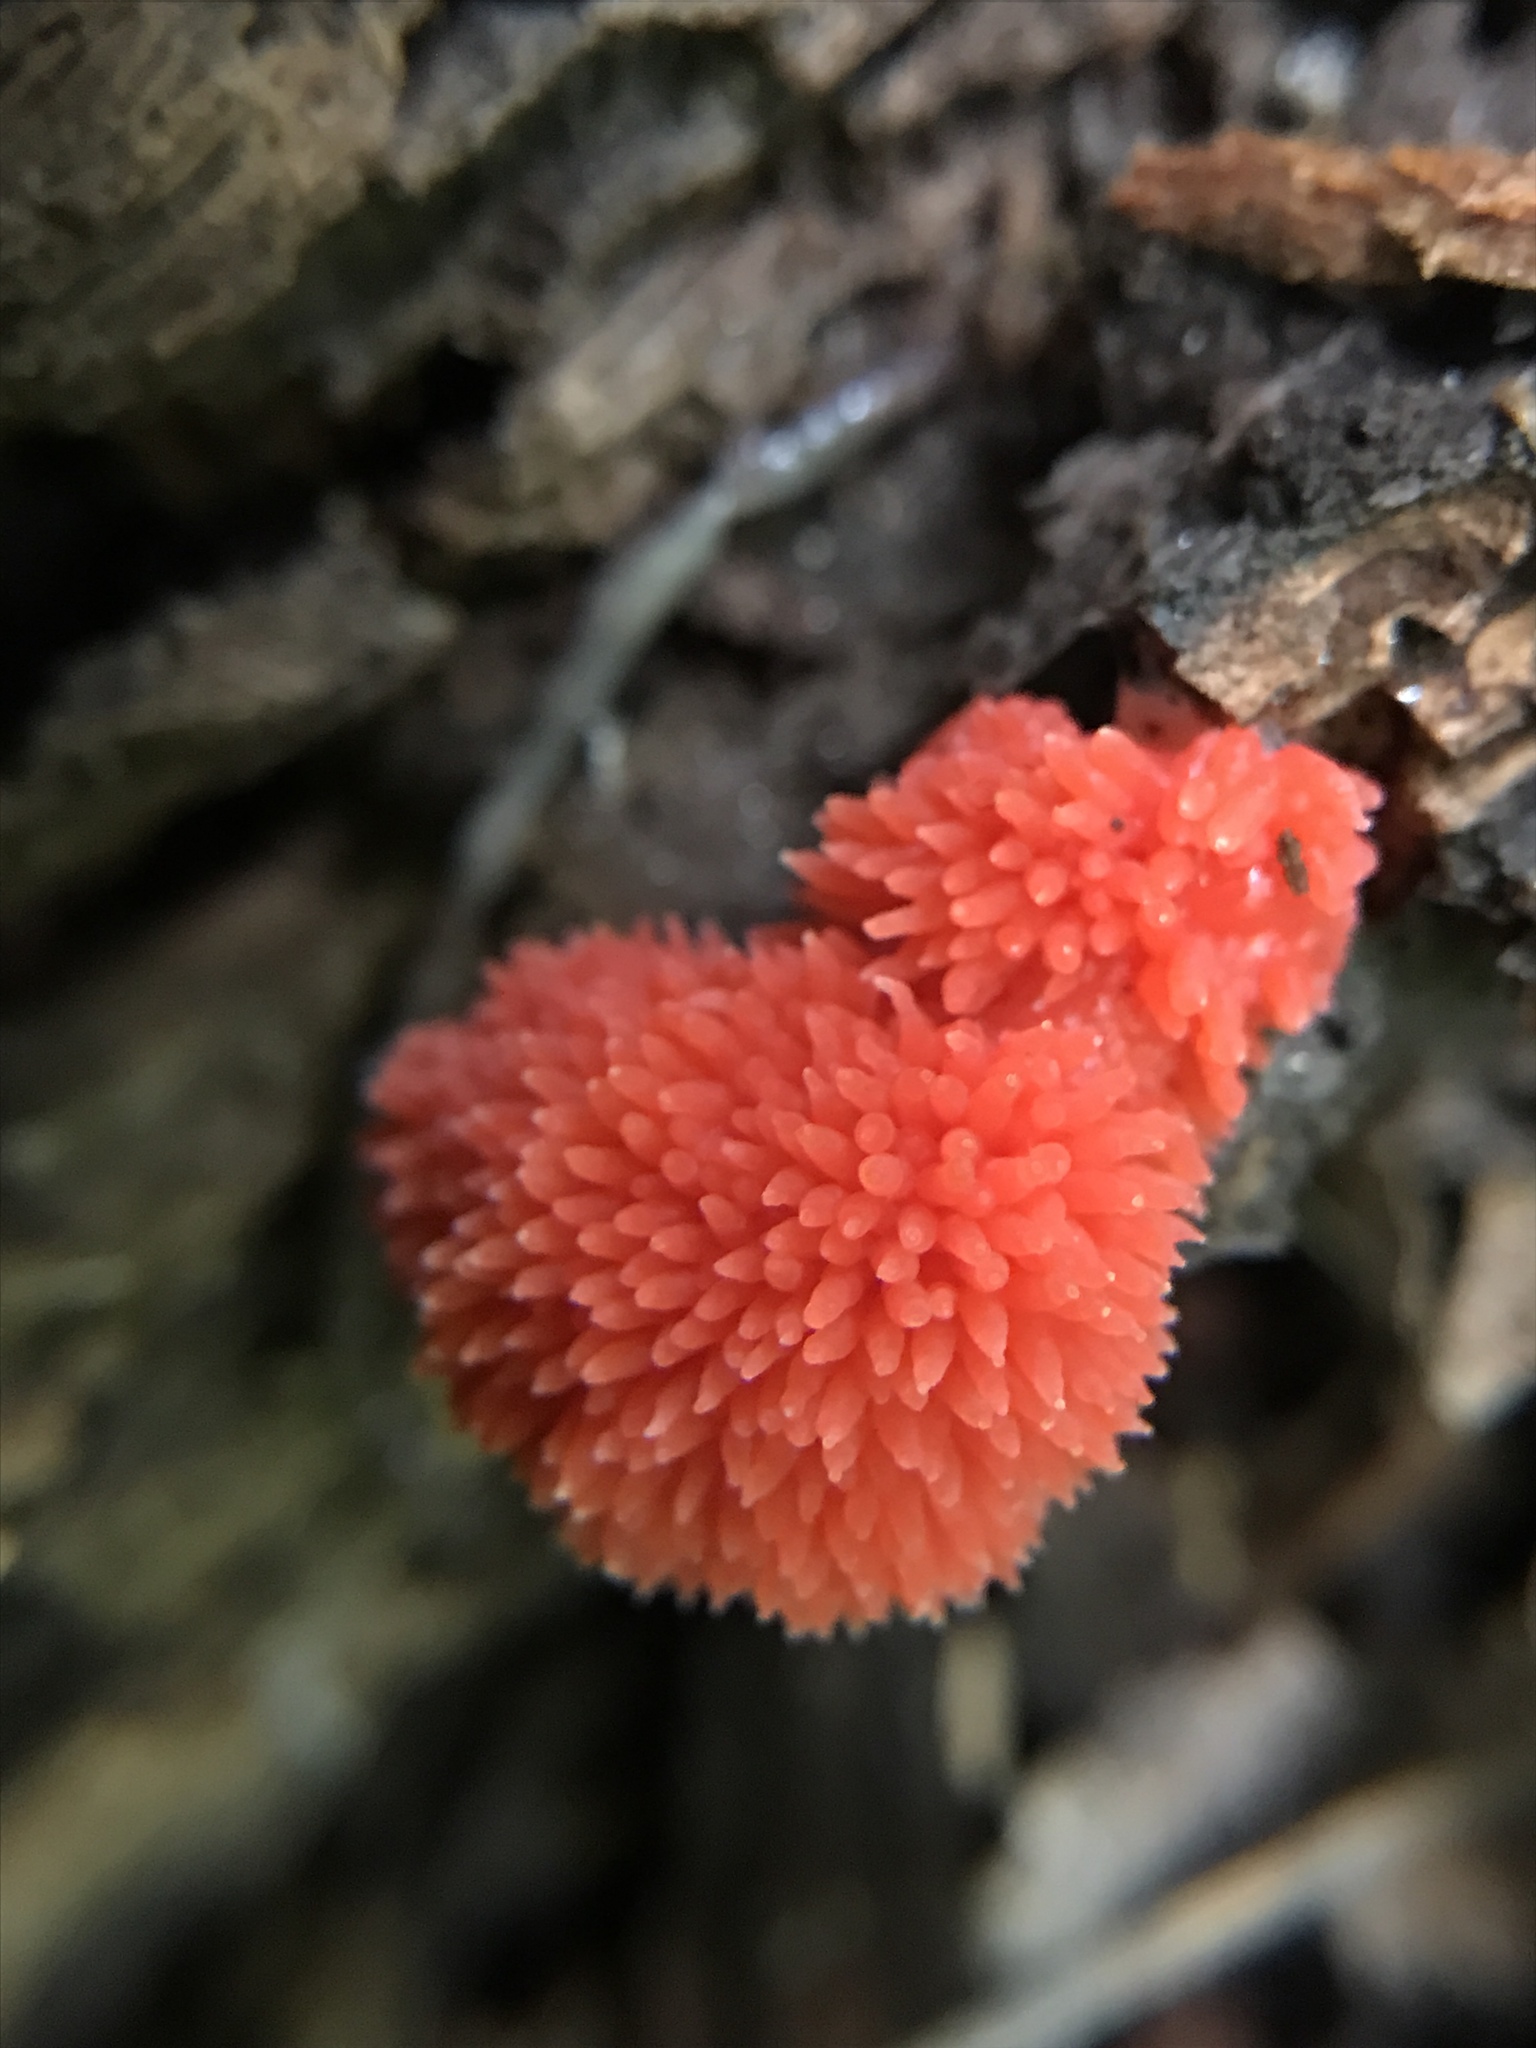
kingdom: Protozoa
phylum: Mycetozoa
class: Myxomycetes
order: Cribrariales
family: Tubiferaceae
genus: Tubifera
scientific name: Tubifera ferruginosa
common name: Red raspberry slime mold
